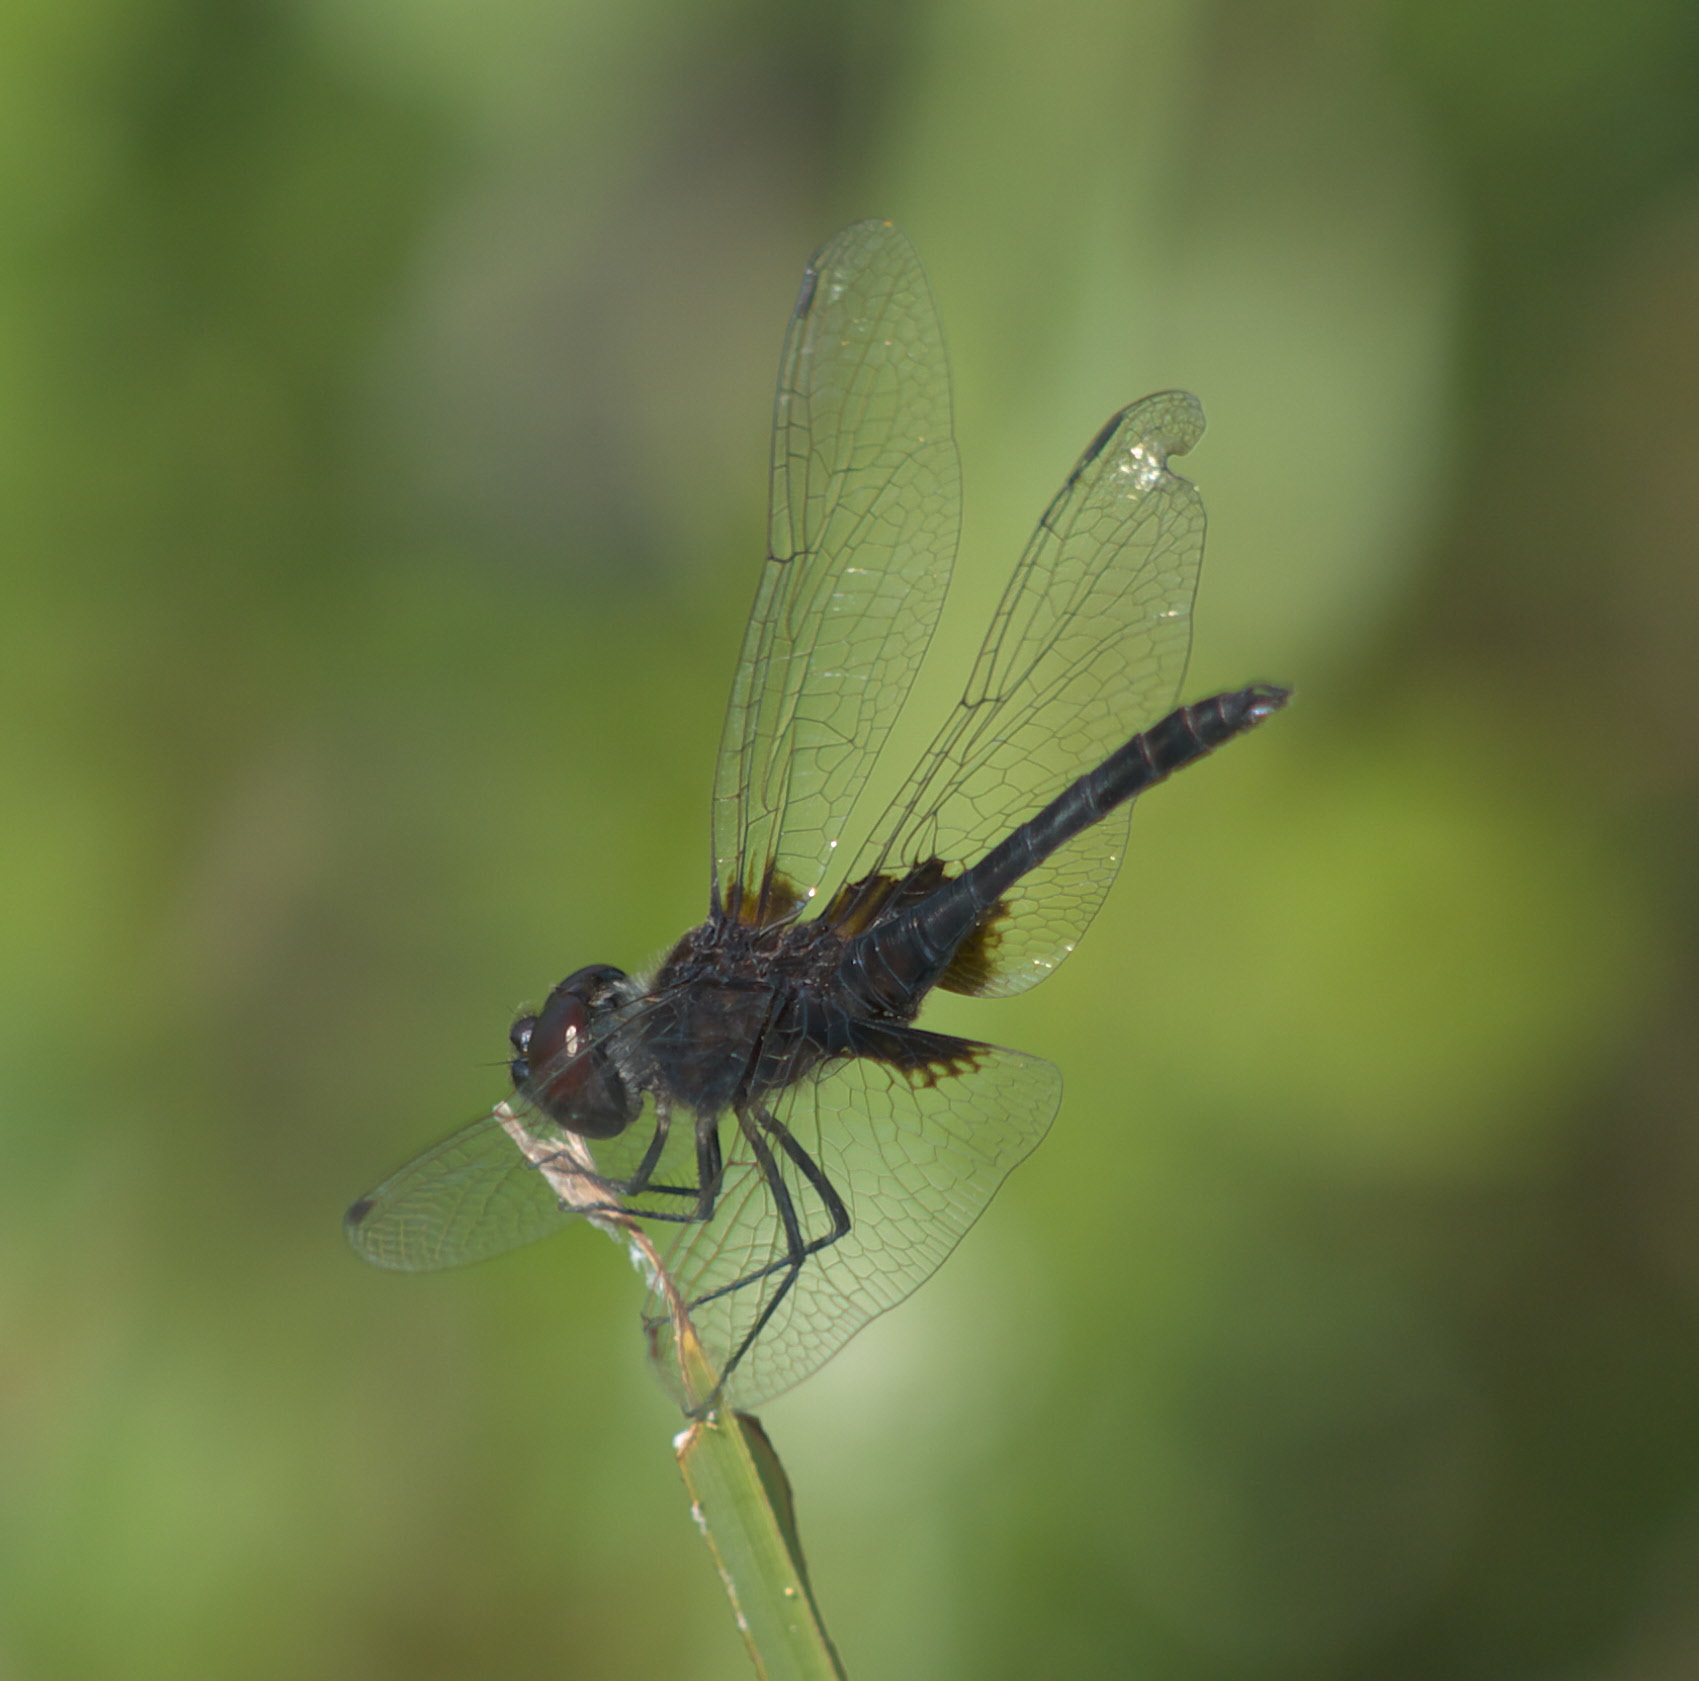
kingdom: Animalia
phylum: Arthropoda
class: Insecta
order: Odonata
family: Libellulidae
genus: Macrodiplax
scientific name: Macrodiplax balteata
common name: Marl pennant
